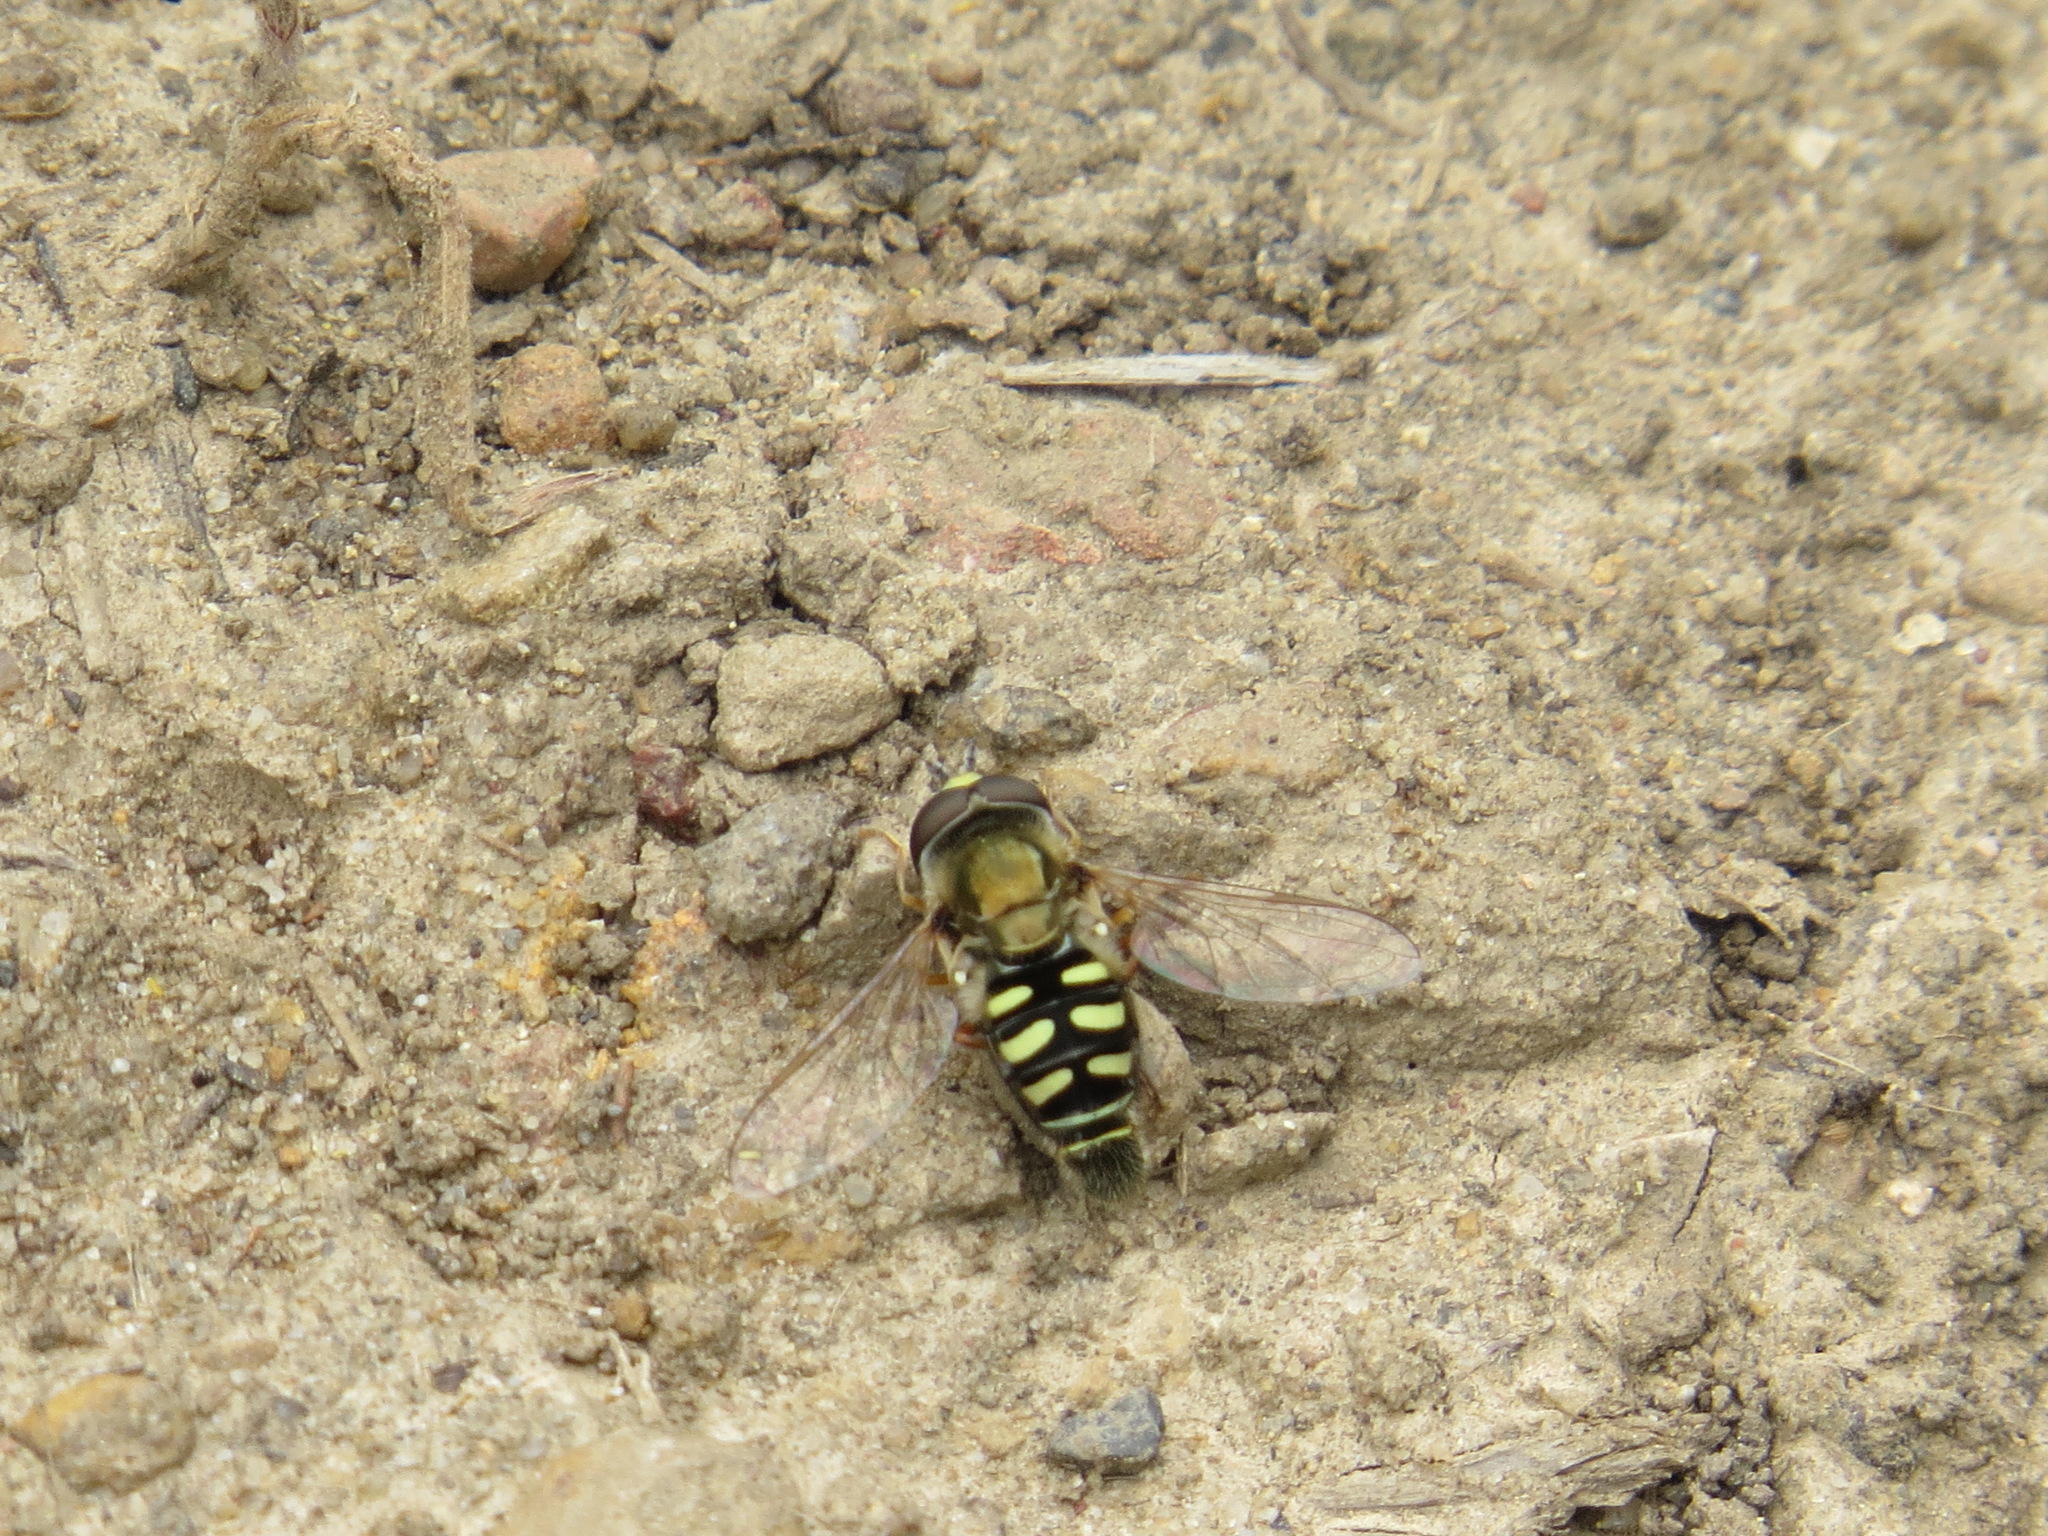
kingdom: Animalia
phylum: Arthropoda
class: Insecta
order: Diptera
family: Syrphidae
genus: Eupeodes
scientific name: Eupeodes volucris
